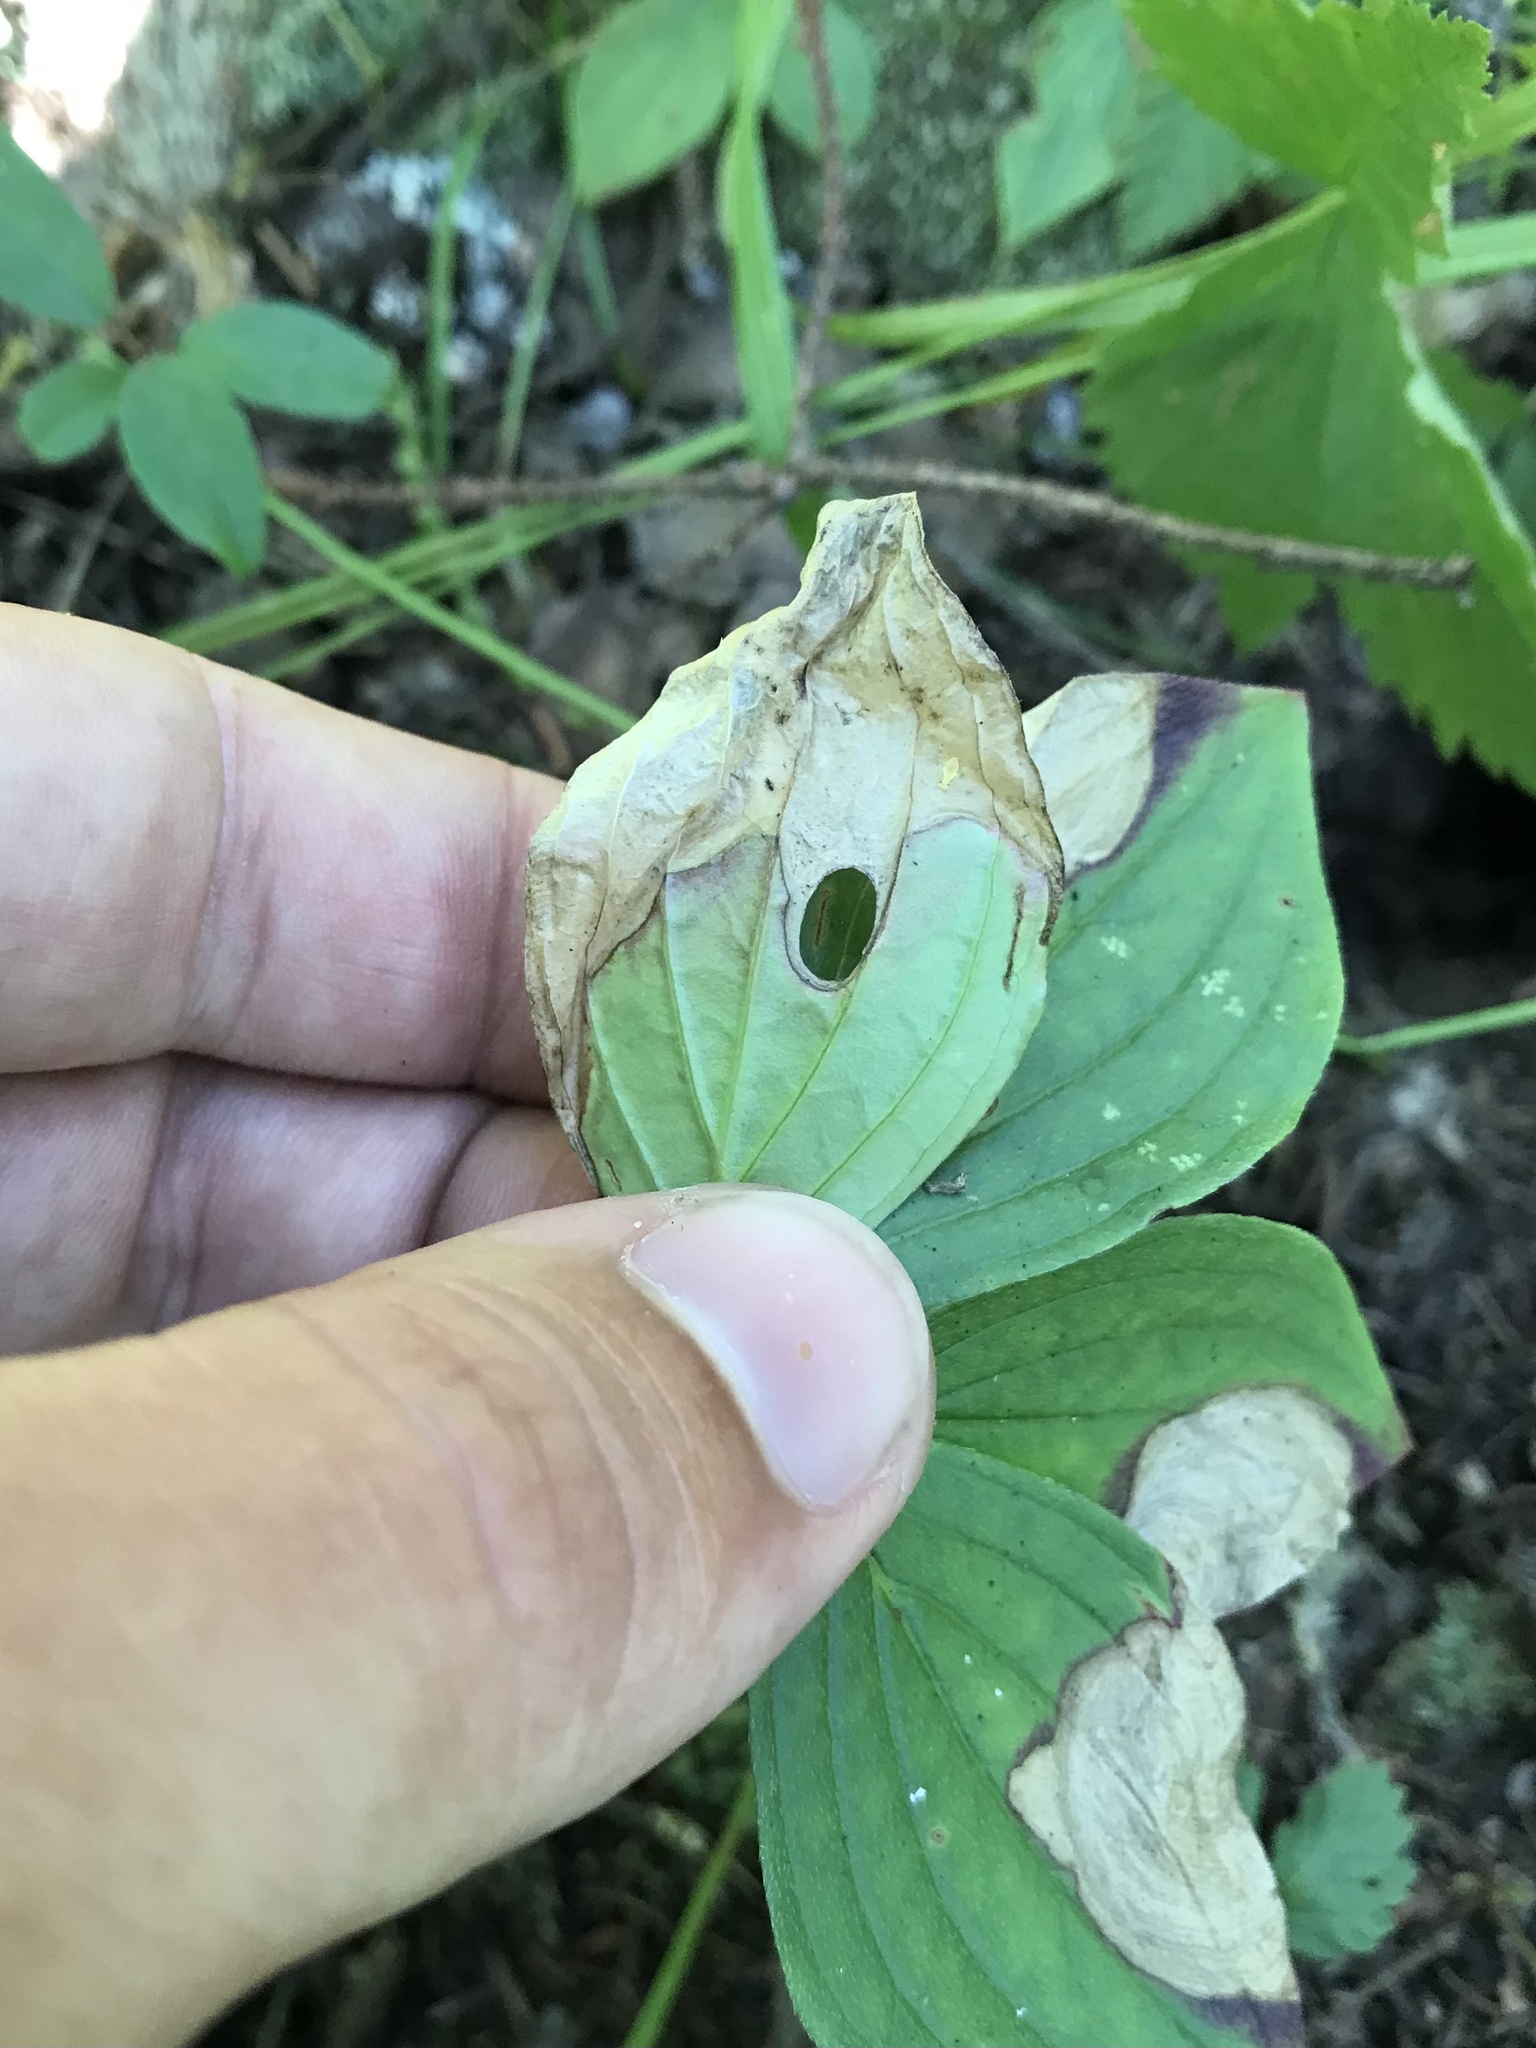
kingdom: Animalia
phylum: Arthropoda
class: Insecta
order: Lepidoptera
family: Heliozelidae
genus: Antispila
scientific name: Antispila freemani
